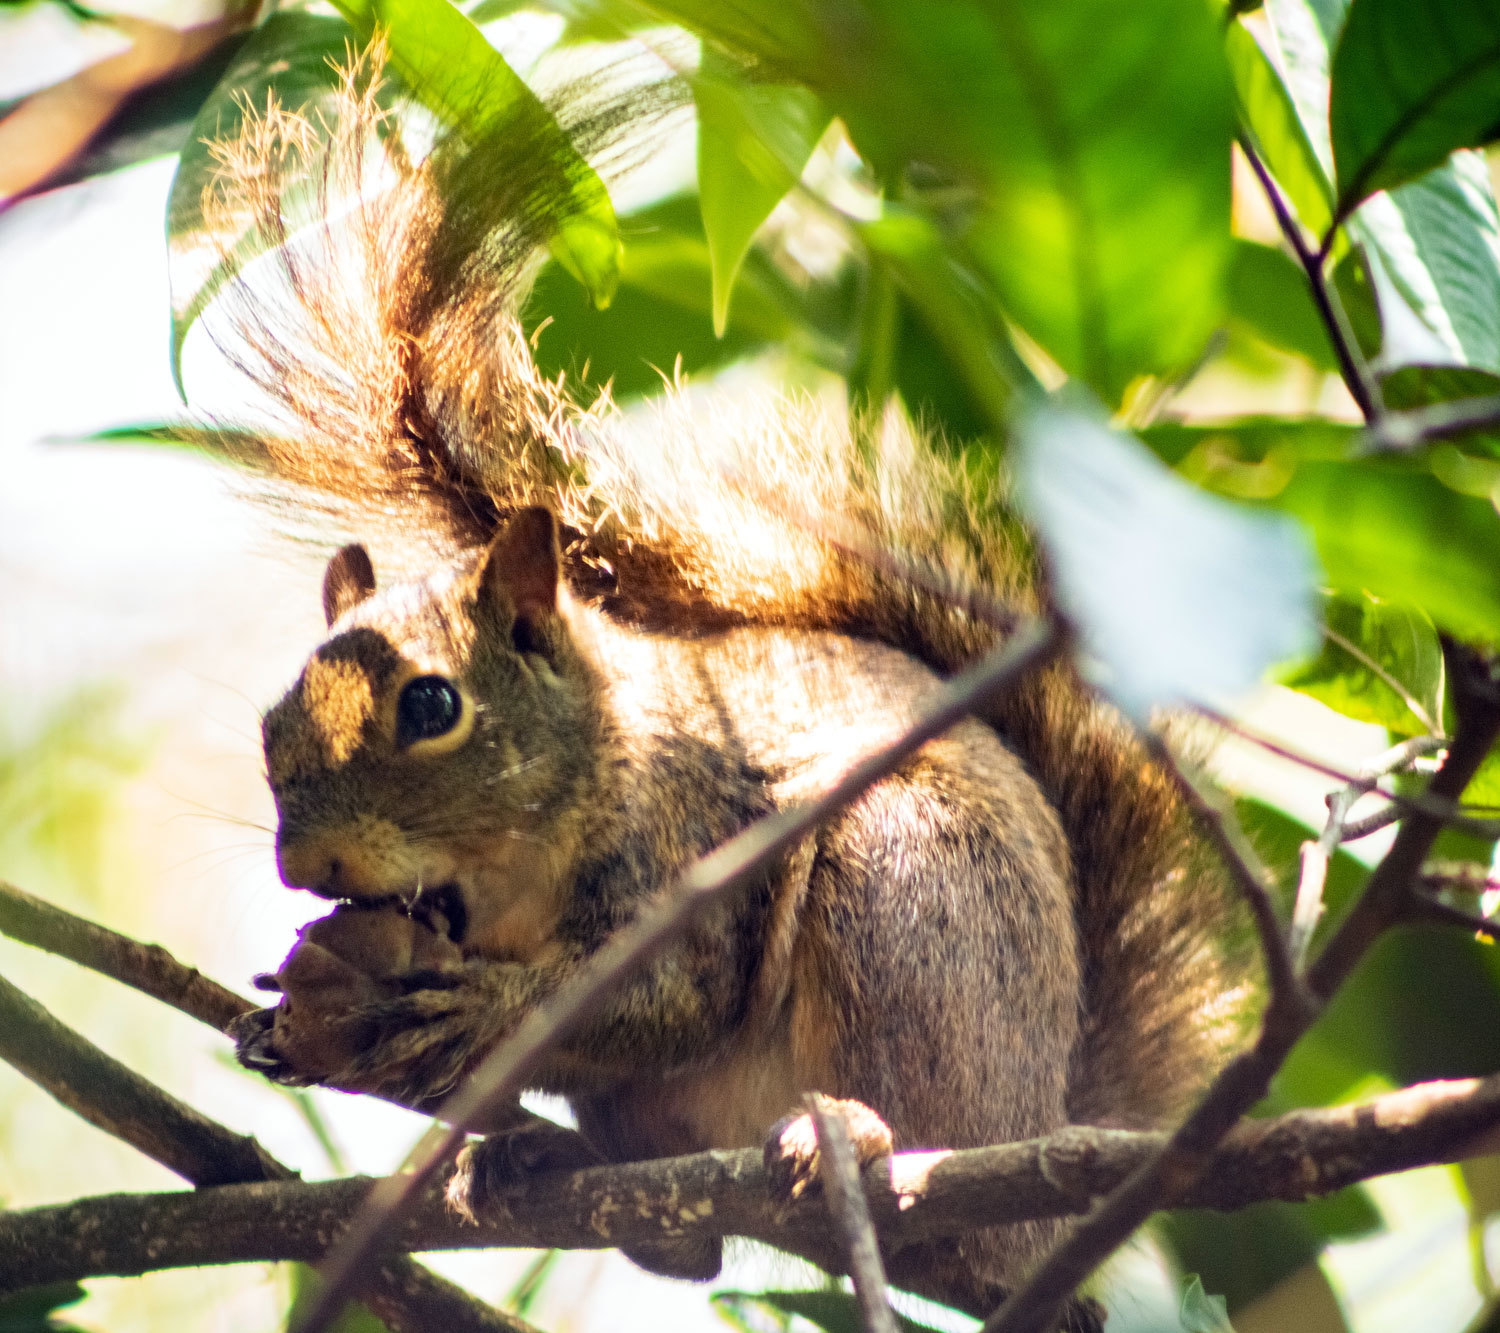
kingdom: Animalia
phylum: Chordata
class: Mammalia
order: Rodentia
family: Sciuridae
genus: Sciurus
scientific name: Sciurus aestuans
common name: Guianan squirrel
